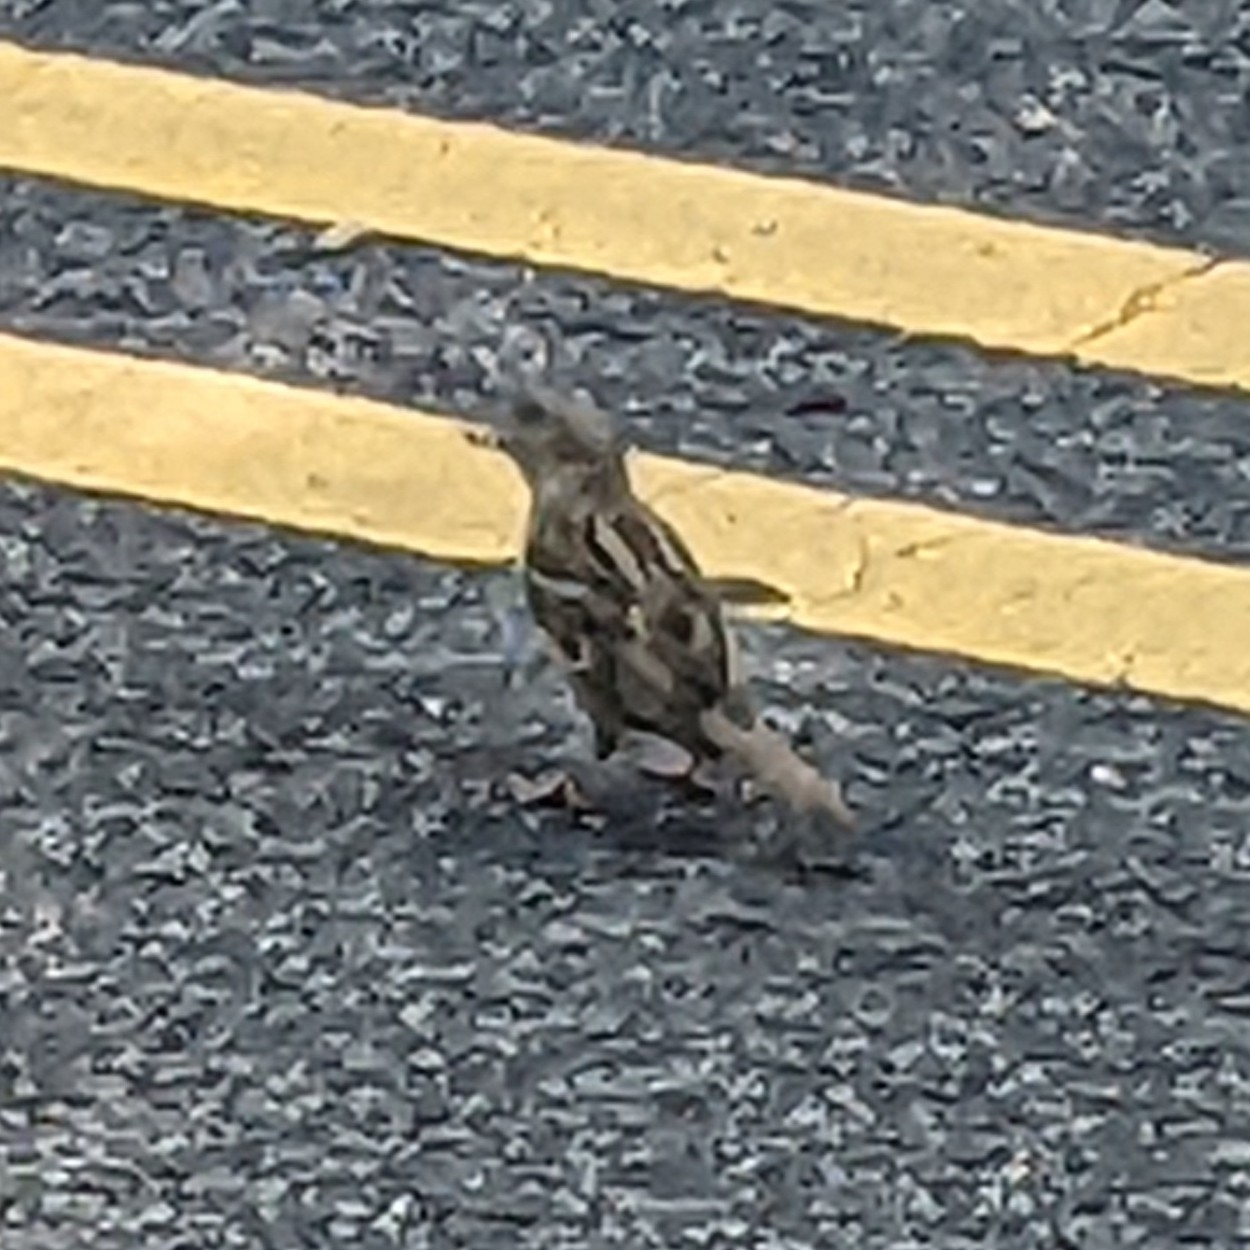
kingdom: Animalia
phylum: Chordata
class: Aves
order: Passeriformes
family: Passeridae
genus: Passer
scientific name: Passer domesticus
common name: House sparrow
